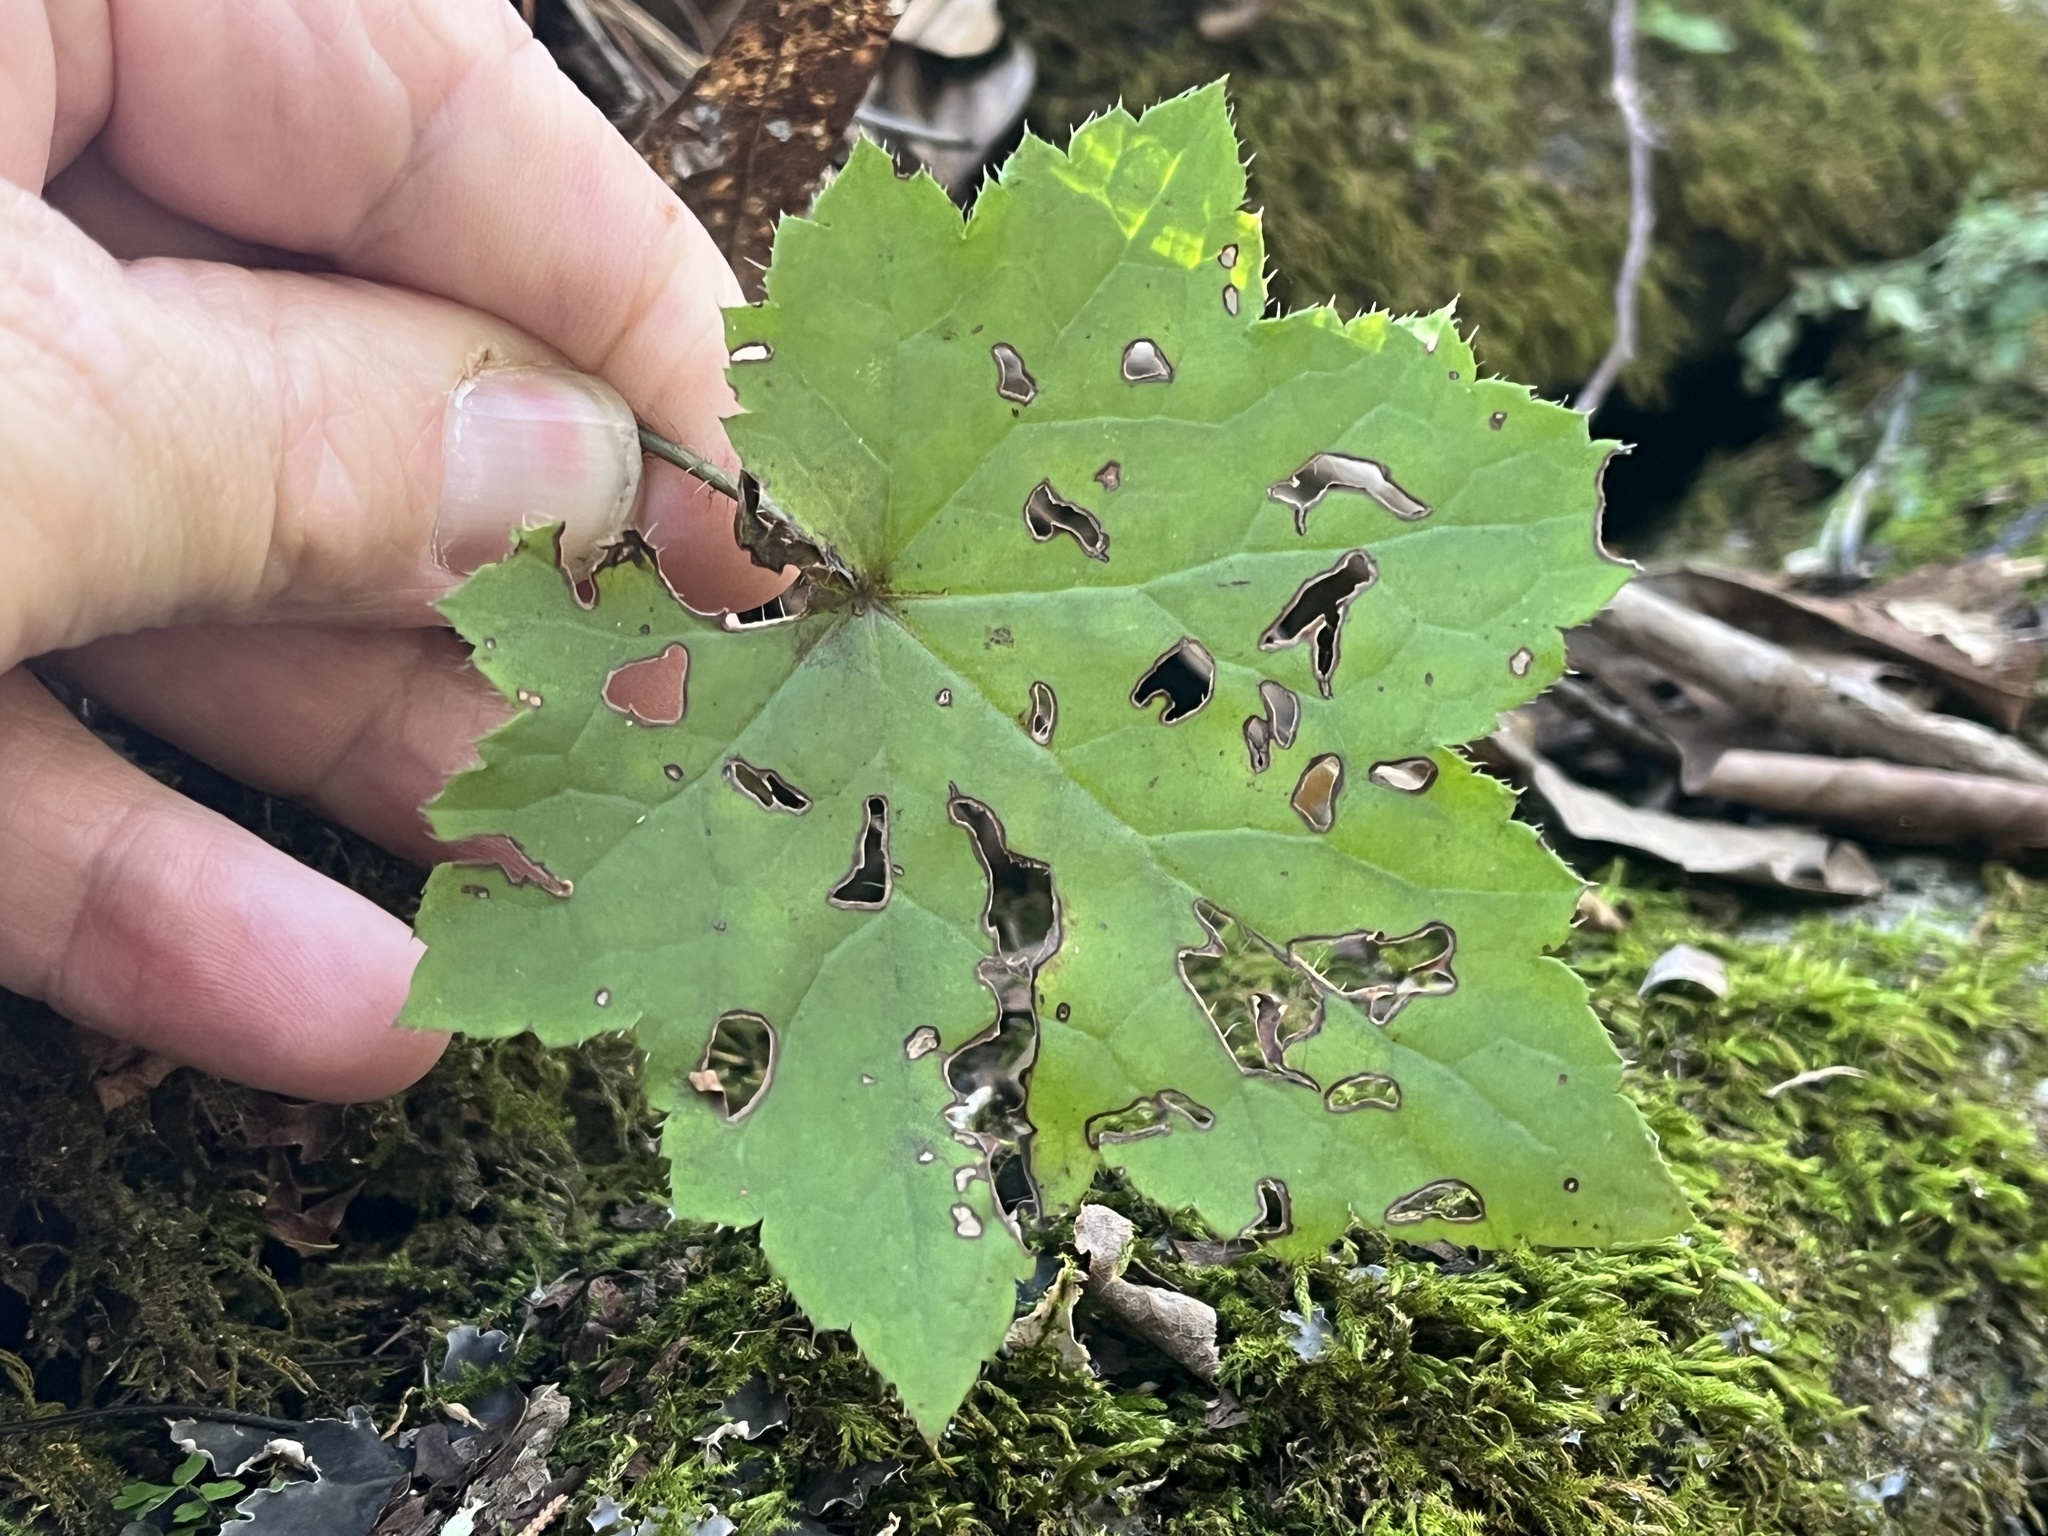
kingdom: Plantae
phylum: Tracheophyta
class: Magnoliopsida
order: Saxifragales
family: Saxifragaceae
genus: Heuchera
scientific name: Heuchera villosa
